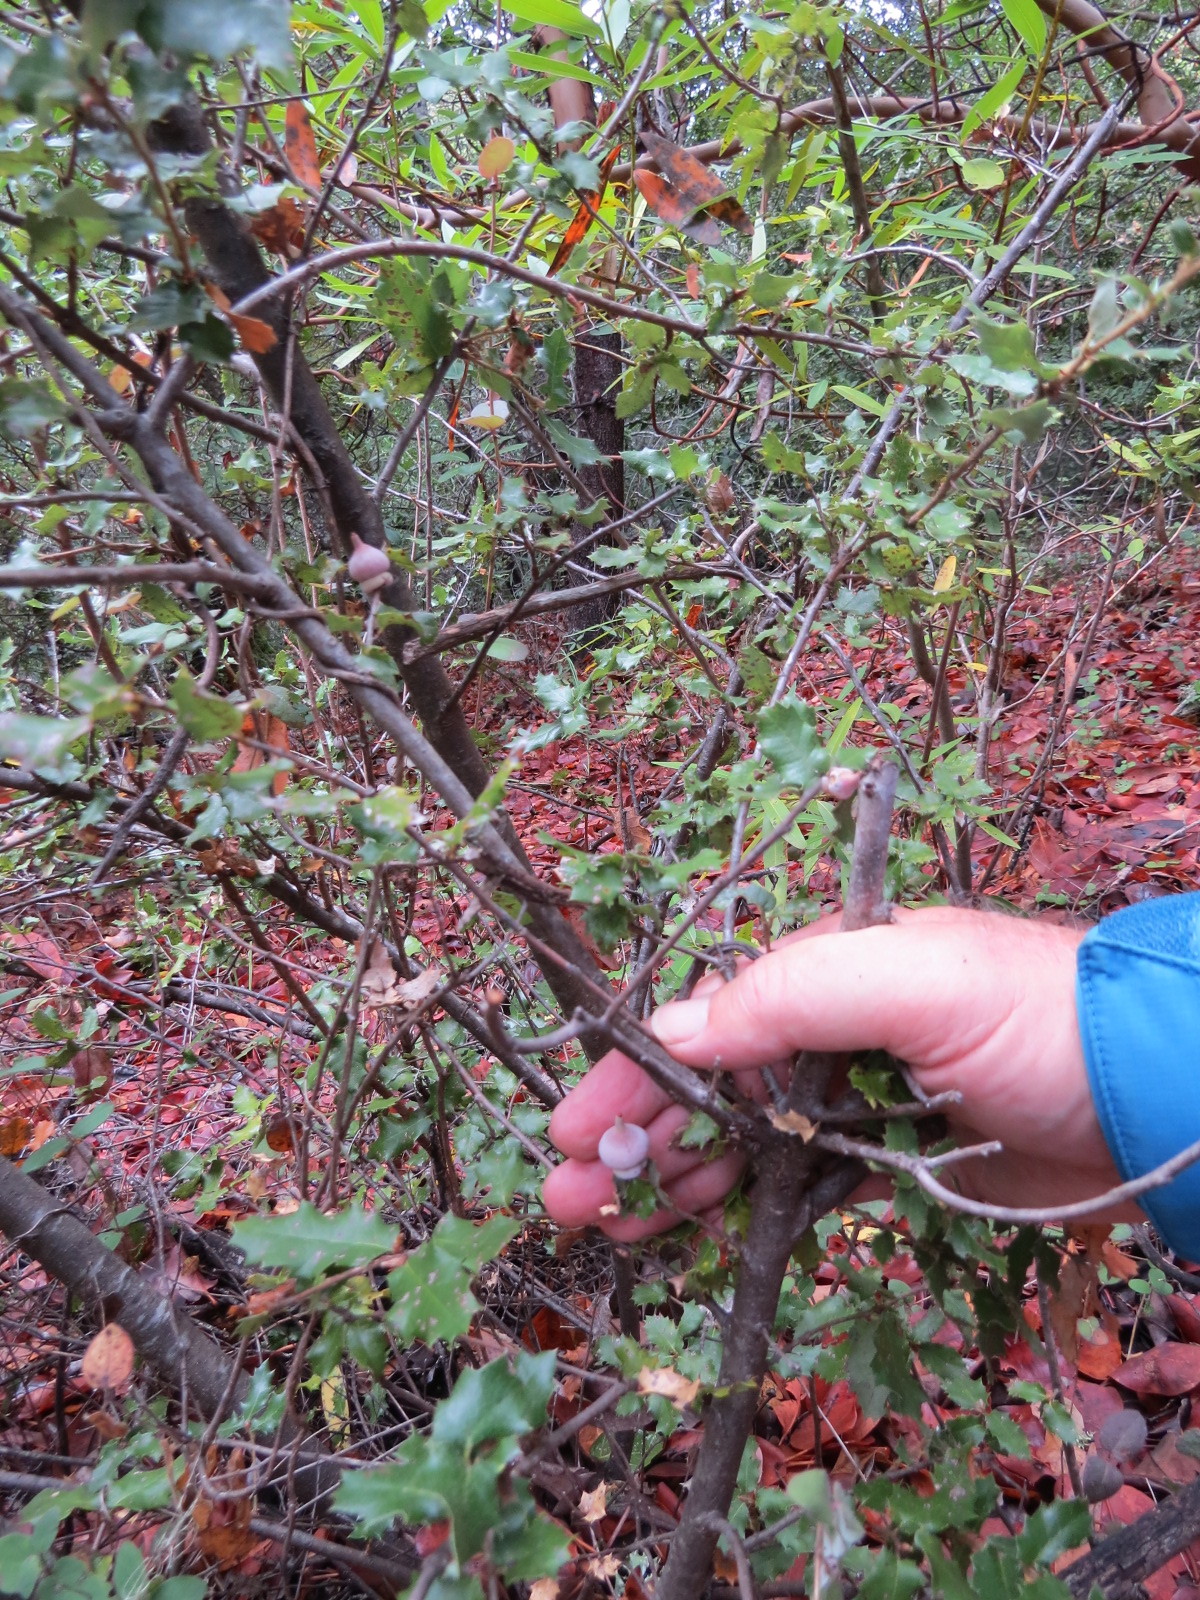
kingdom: Animalia
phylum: Arthropoda
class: Insecta
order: Hymenoptera
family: Cynipidae
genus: Heteroecus
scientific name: Heteroecus
